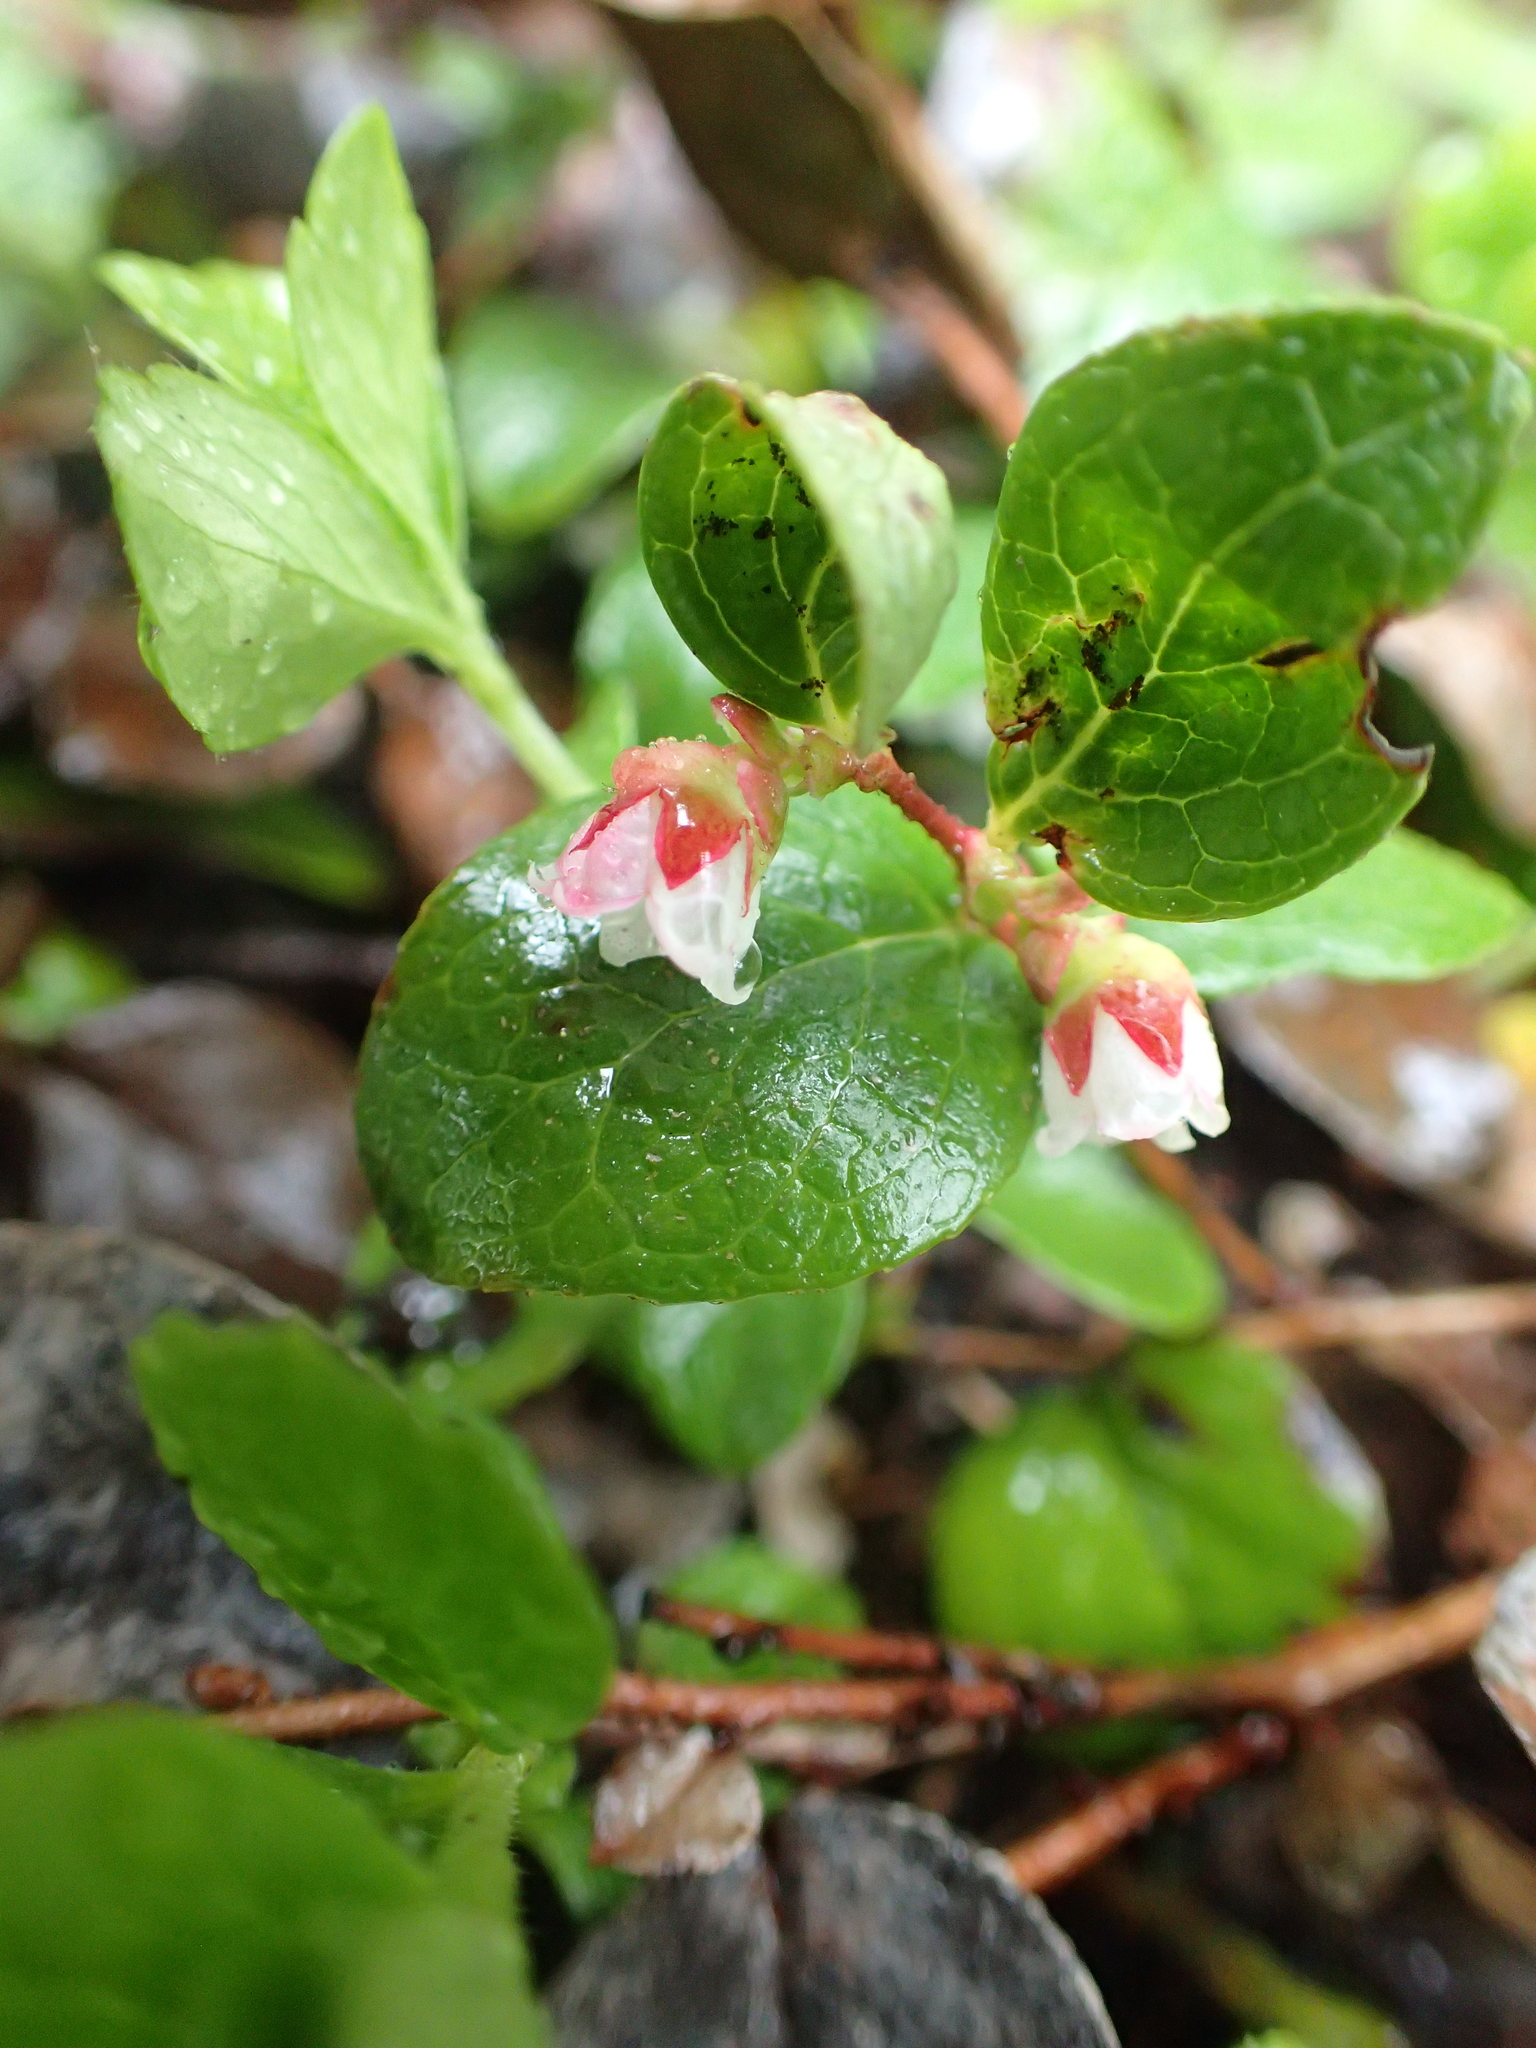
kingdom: Plantae
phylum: Tracheophyta
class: Magnoliopsida
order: Ericales
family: Ericaceae
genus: Gaultheria
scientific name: Gaultheria humifusa
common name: Alpine wintergreen
